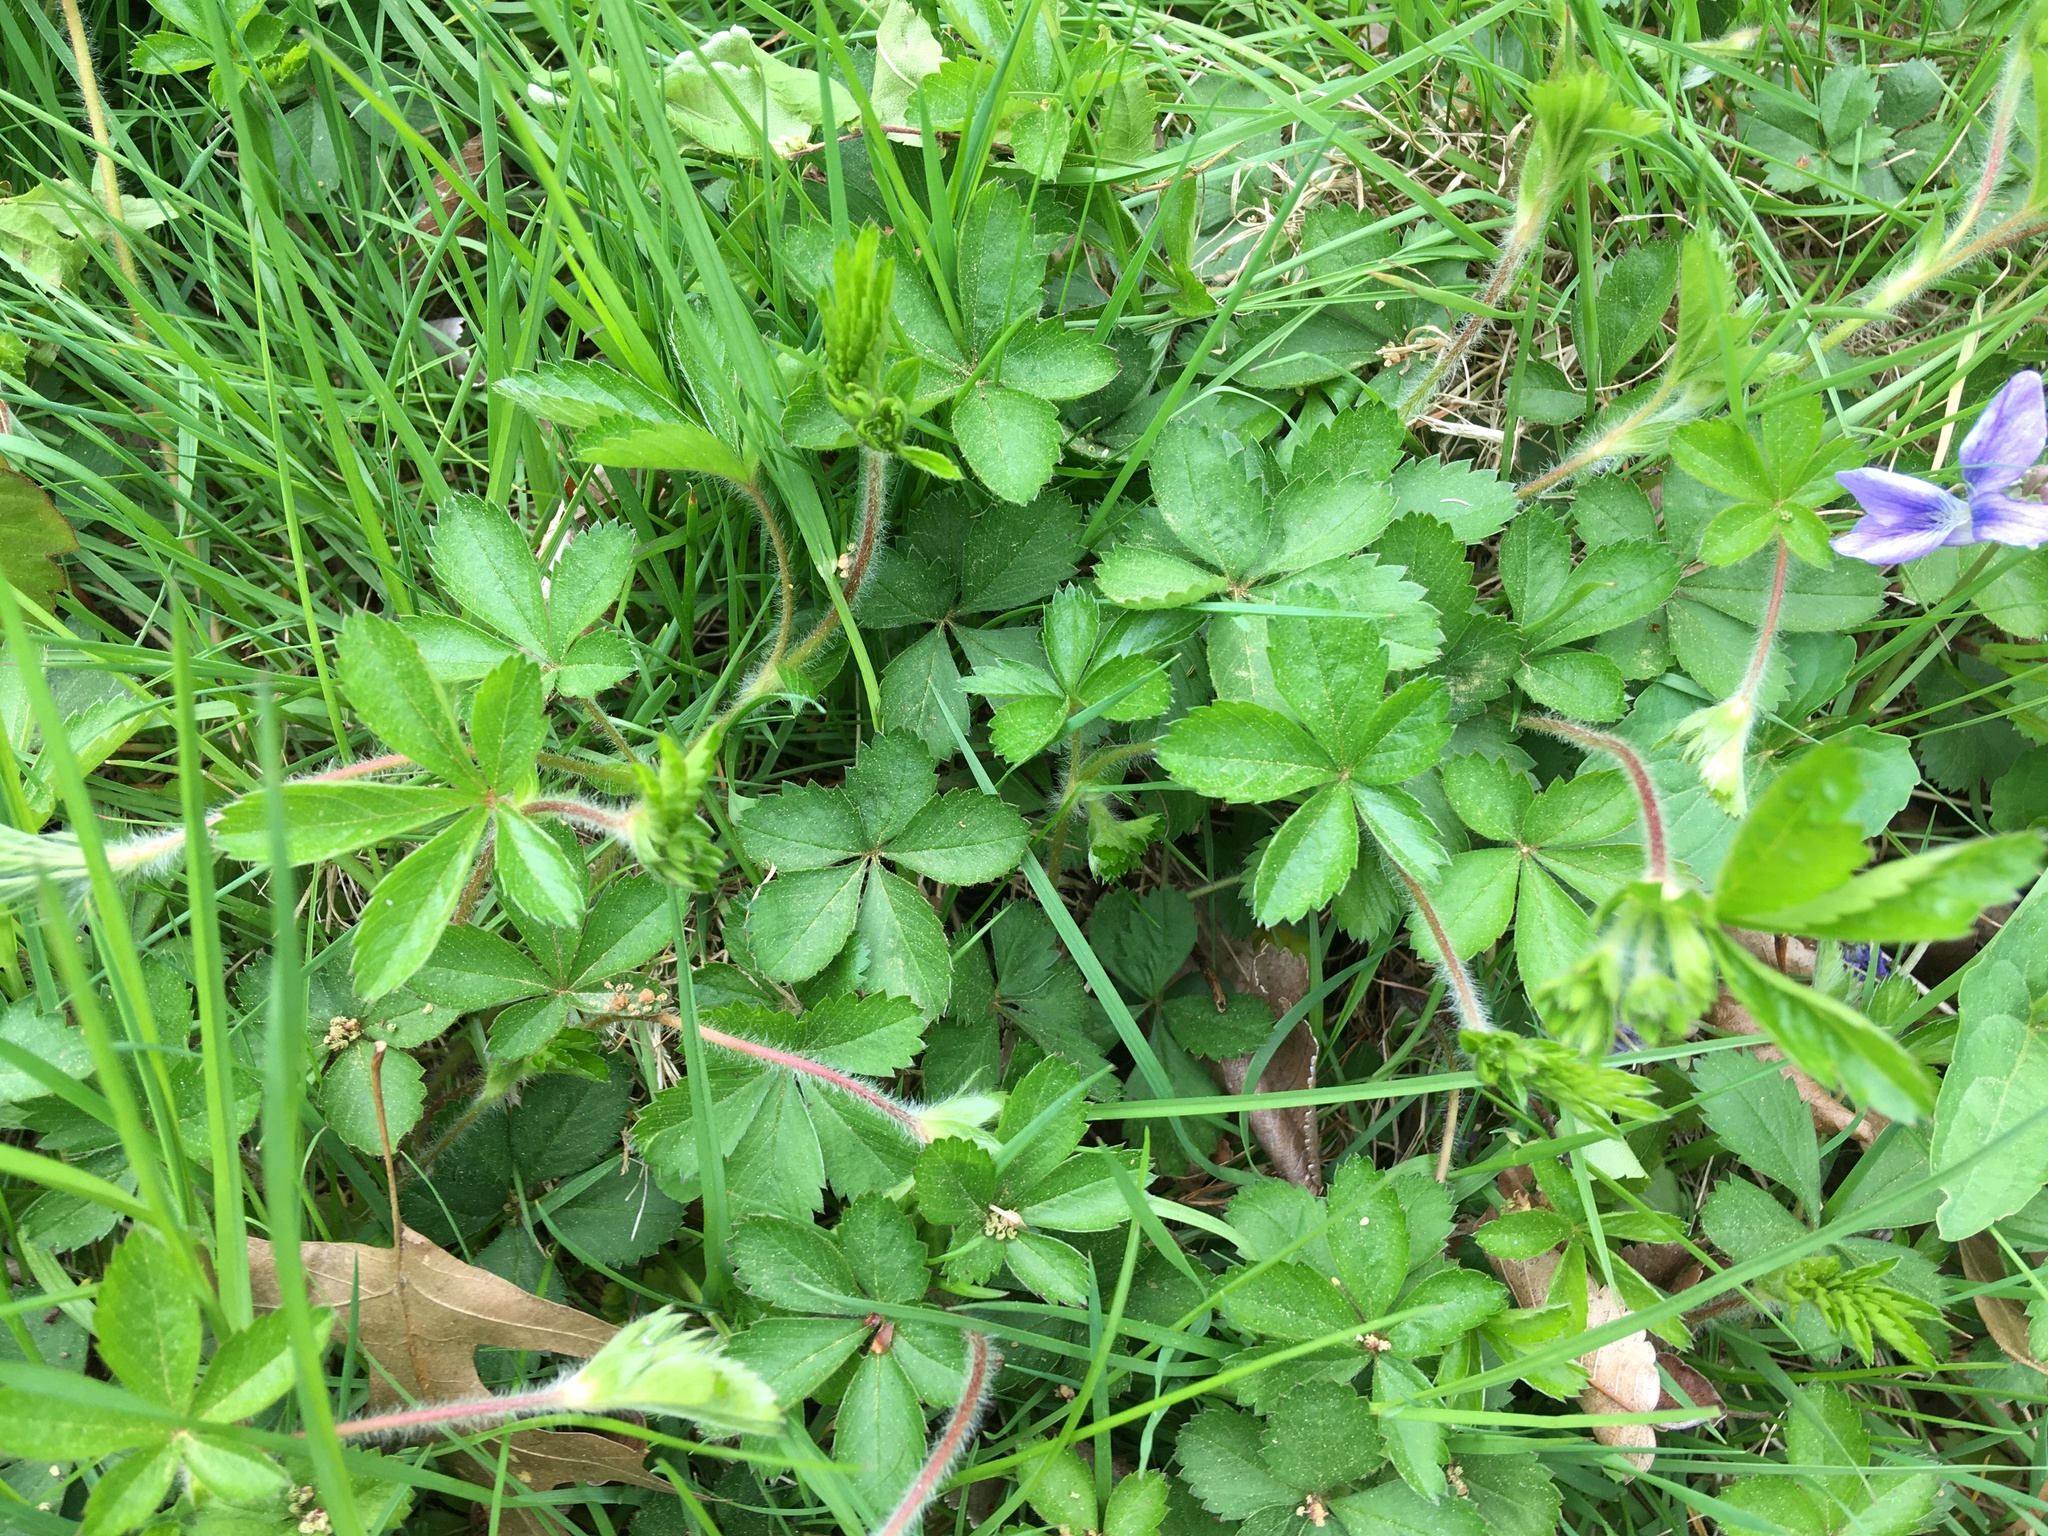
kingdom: Plantae
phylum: Tracheophyta
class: Magnoliopsida
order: Rosales
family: Rosaceae
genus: Potentilla
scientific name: Potentilla simplex
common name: Old field cinquefoil
